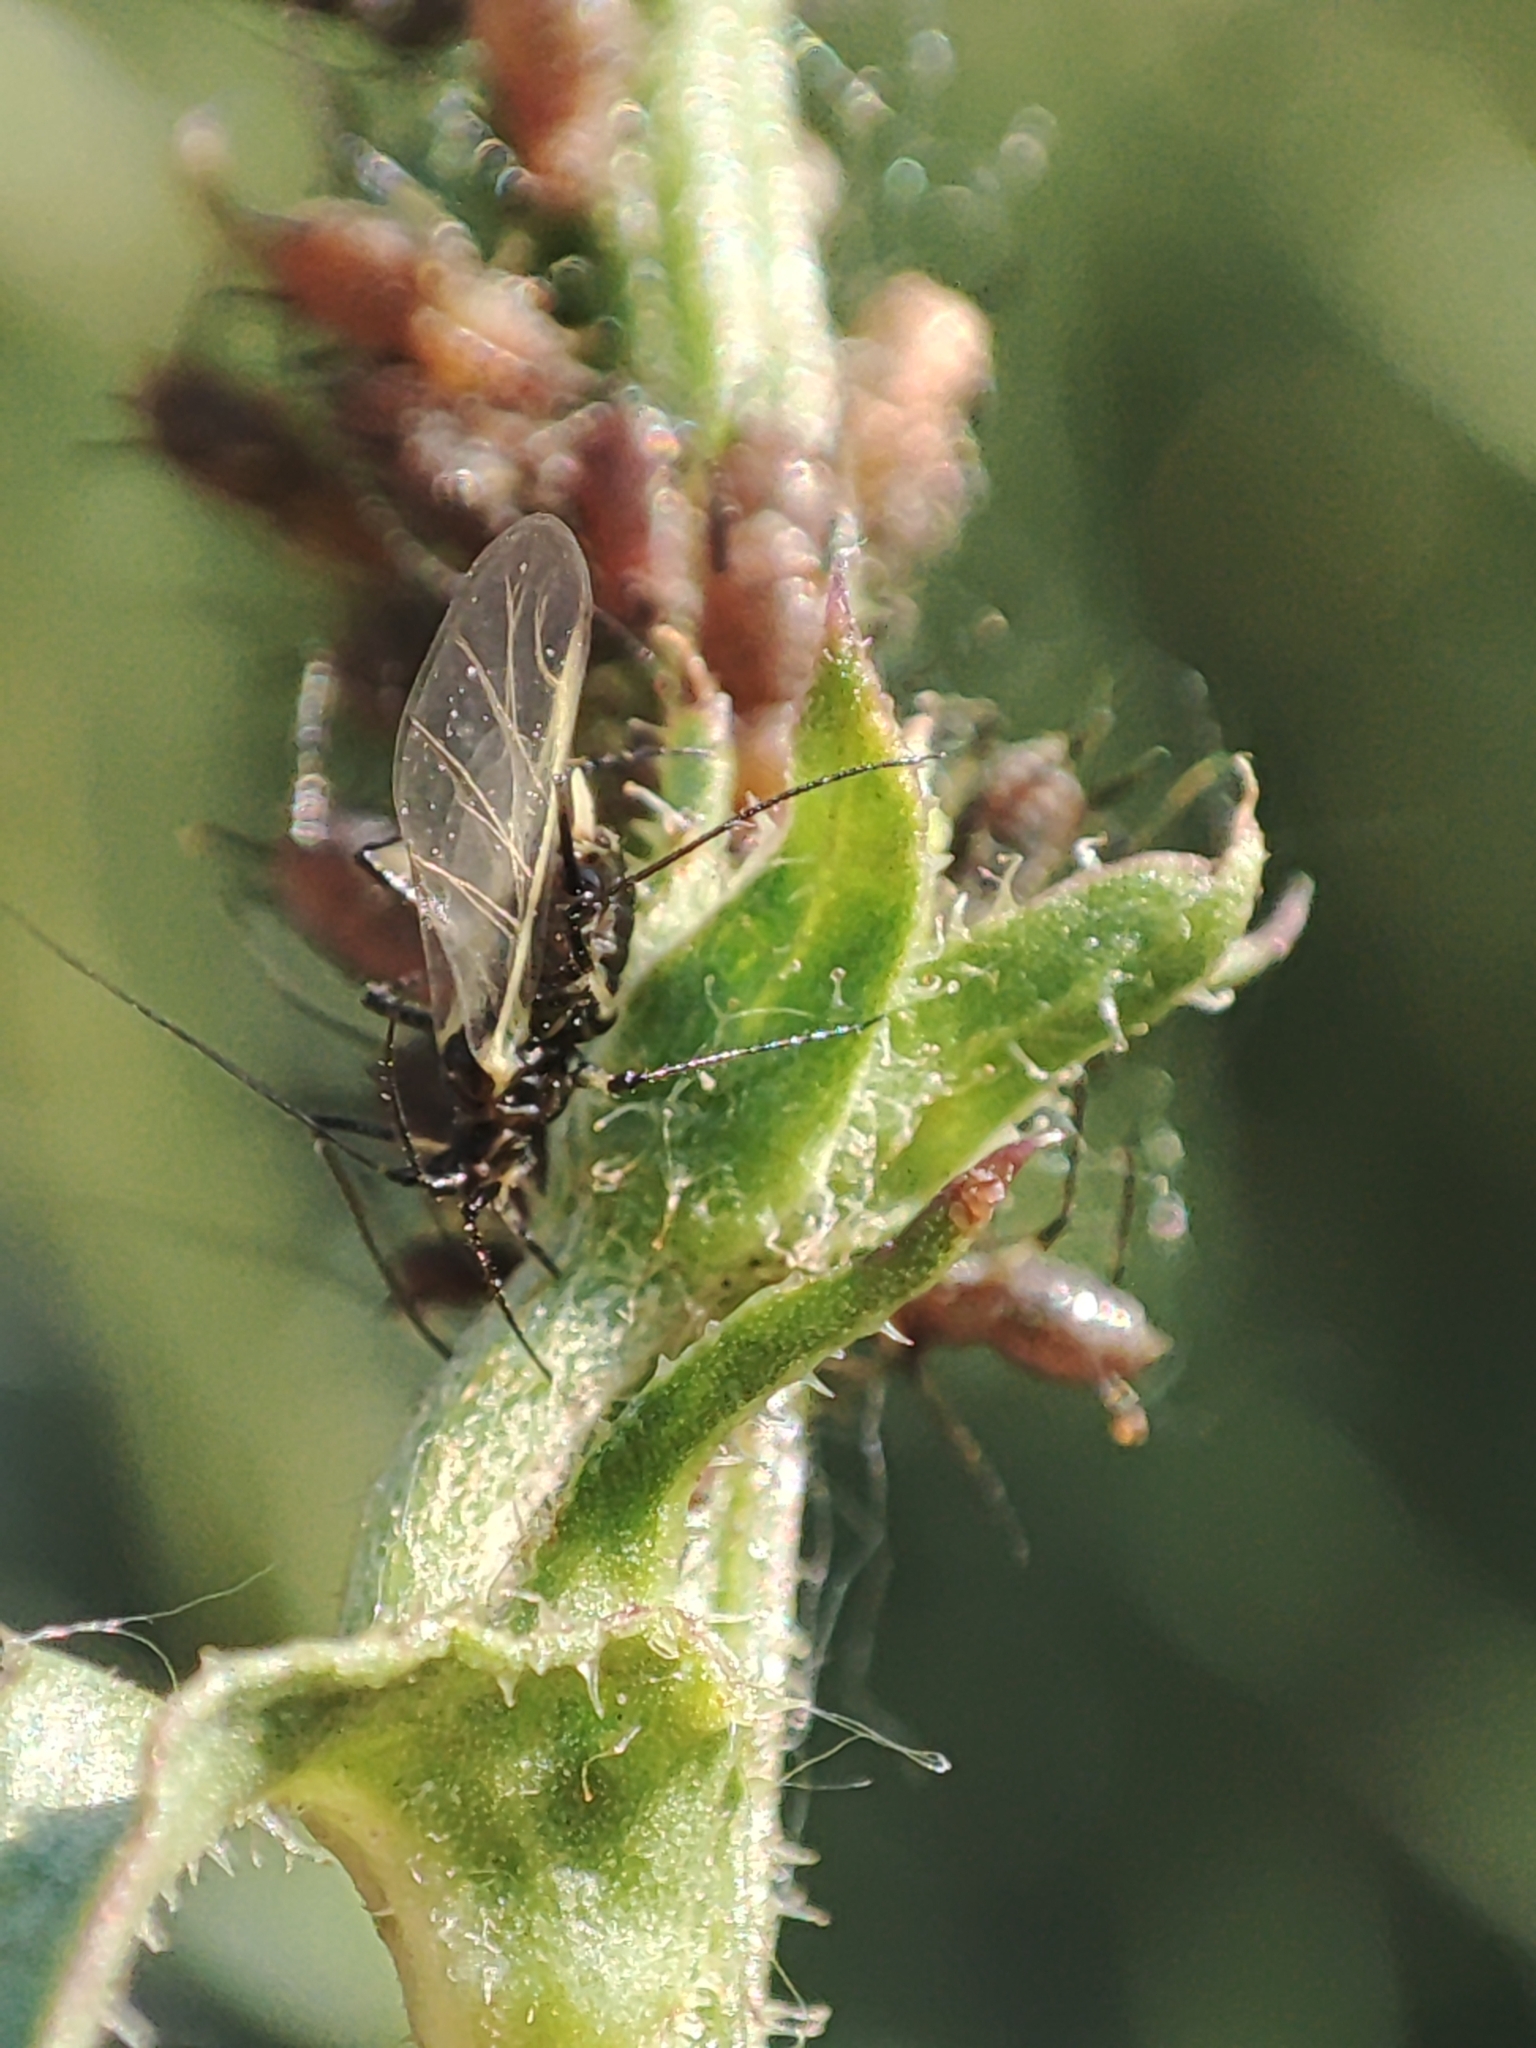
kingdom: Plantae
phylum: Tracheophyta
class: Magnoliopsida
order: Asterales
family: Asteraceae
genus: Cichorium
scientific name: Cichorium intybus
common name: Chicory
